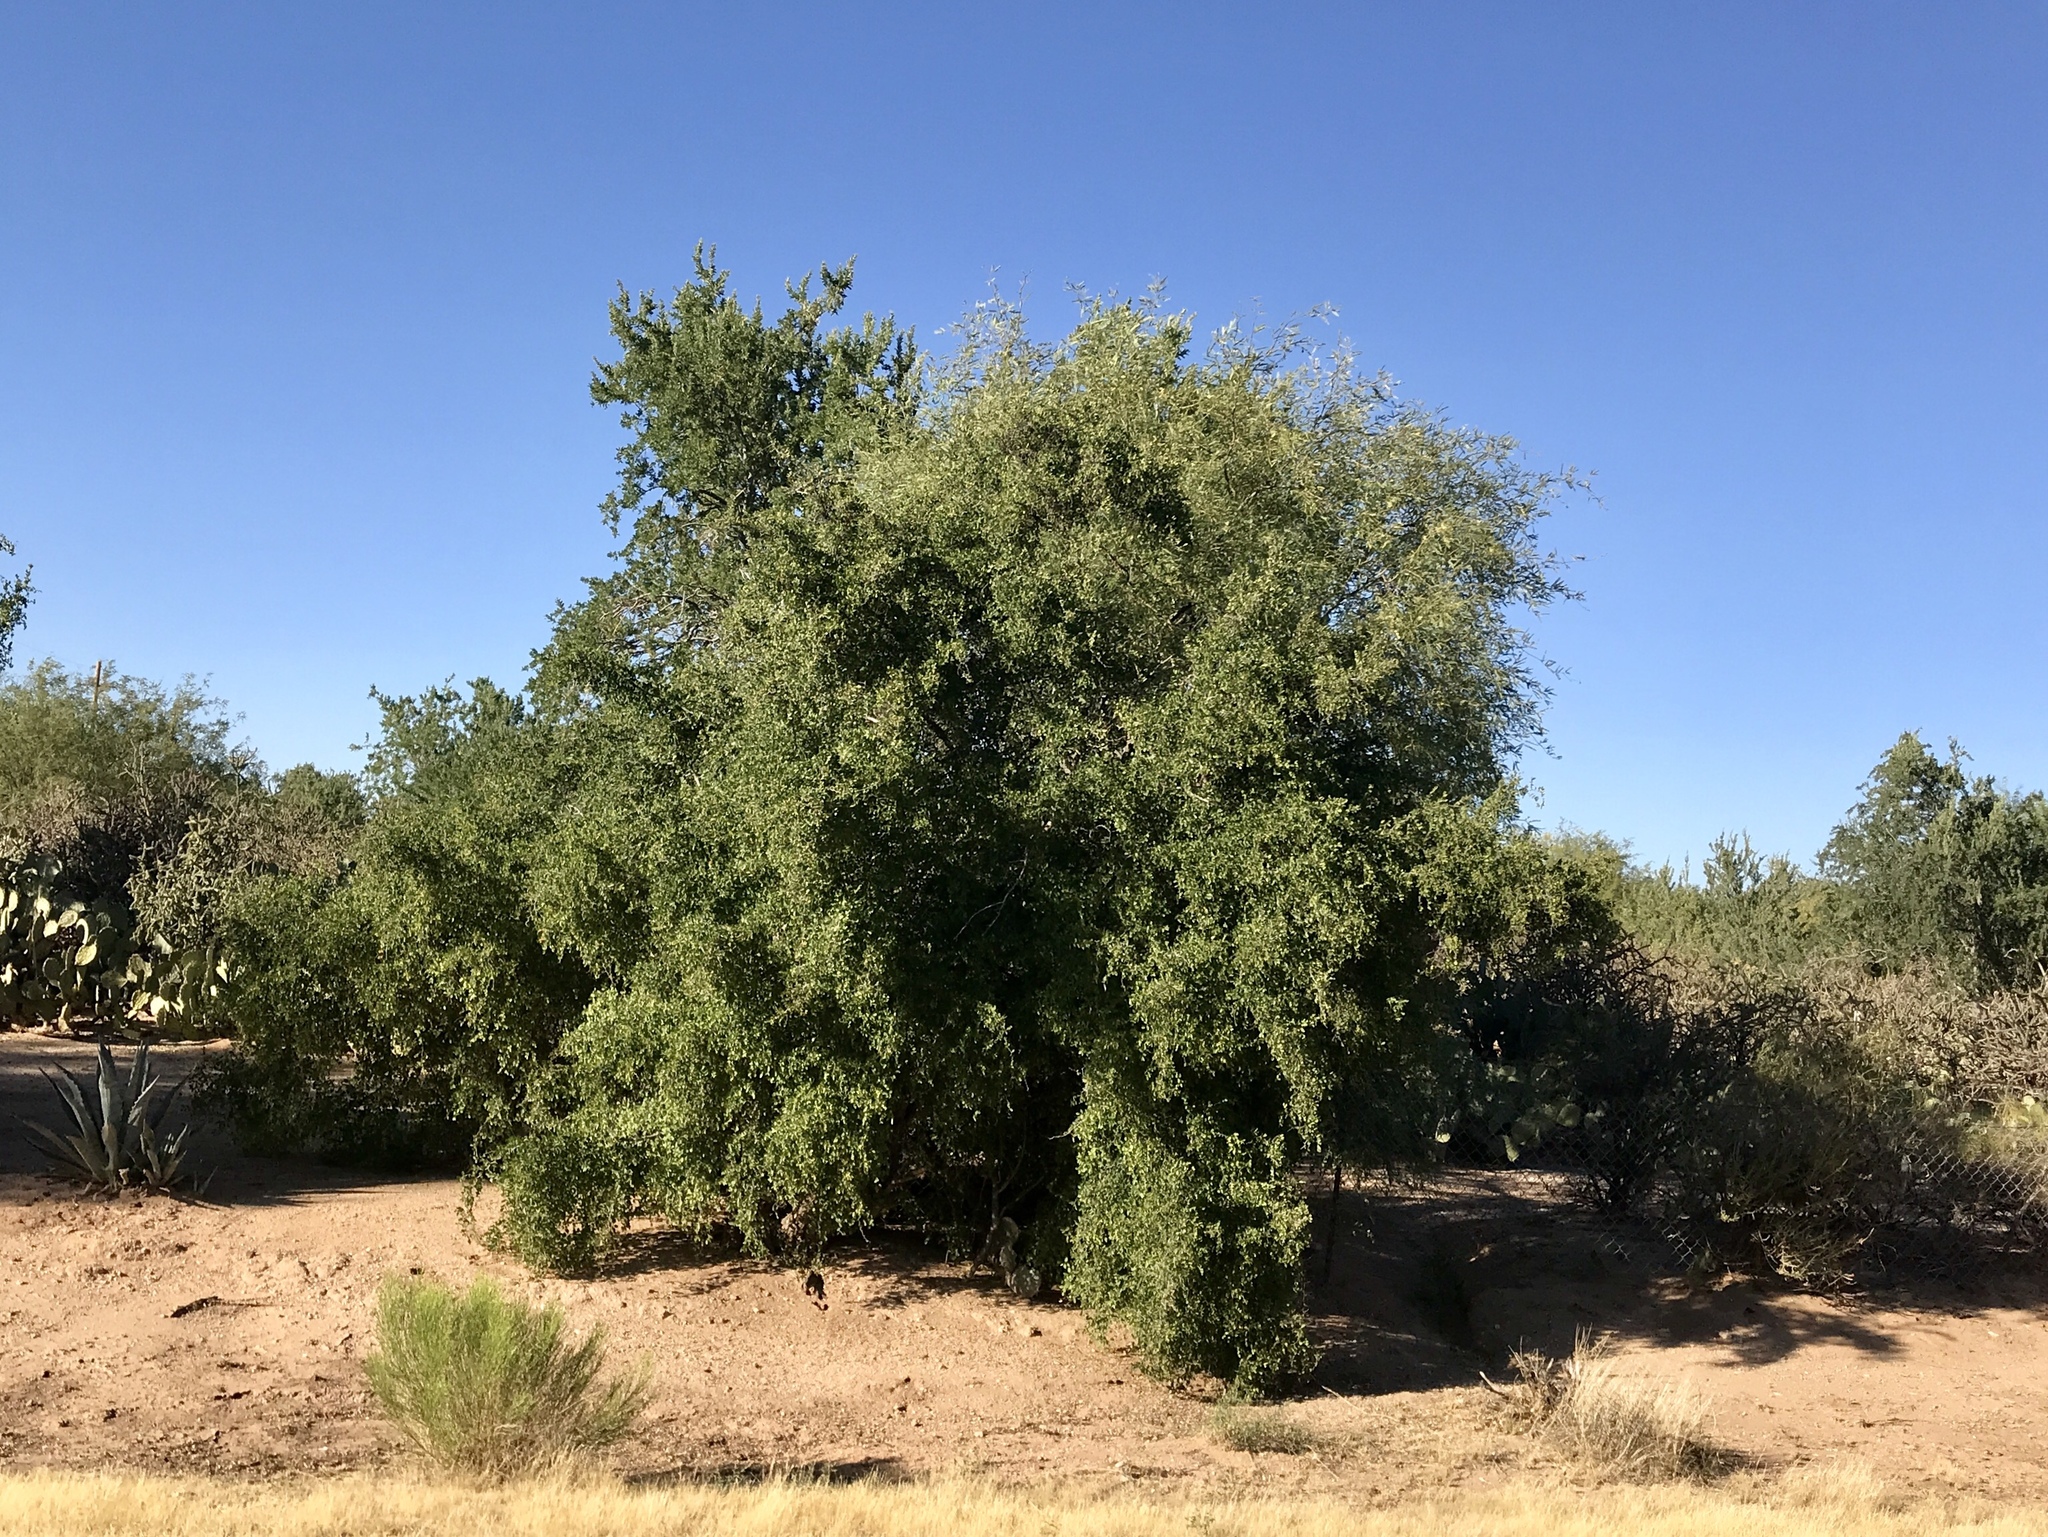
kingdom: Plantae
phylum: Tracheophyta
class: Magnoliopsida
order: Rosales
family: Cannabaceae
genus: Celtis
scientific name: Celtis pallida
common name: Desert hackberry
